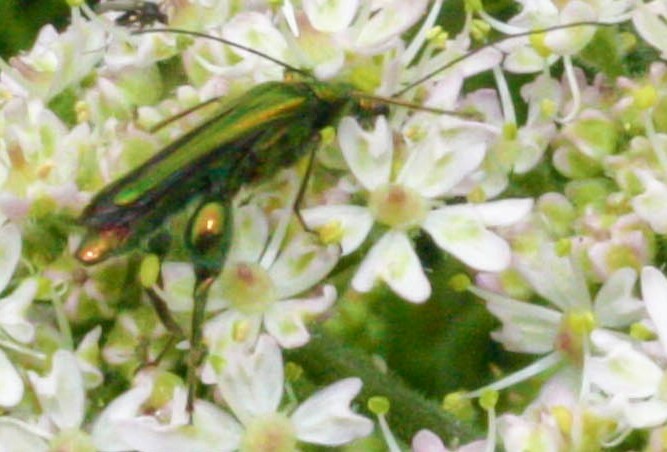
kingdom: Animalia
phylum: Arthropoda
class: Insecta
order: Coleoptera
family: Oedemeridae
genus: Oedemera
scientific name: Oedemera nobilis
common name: Swollen-thighed beetle
